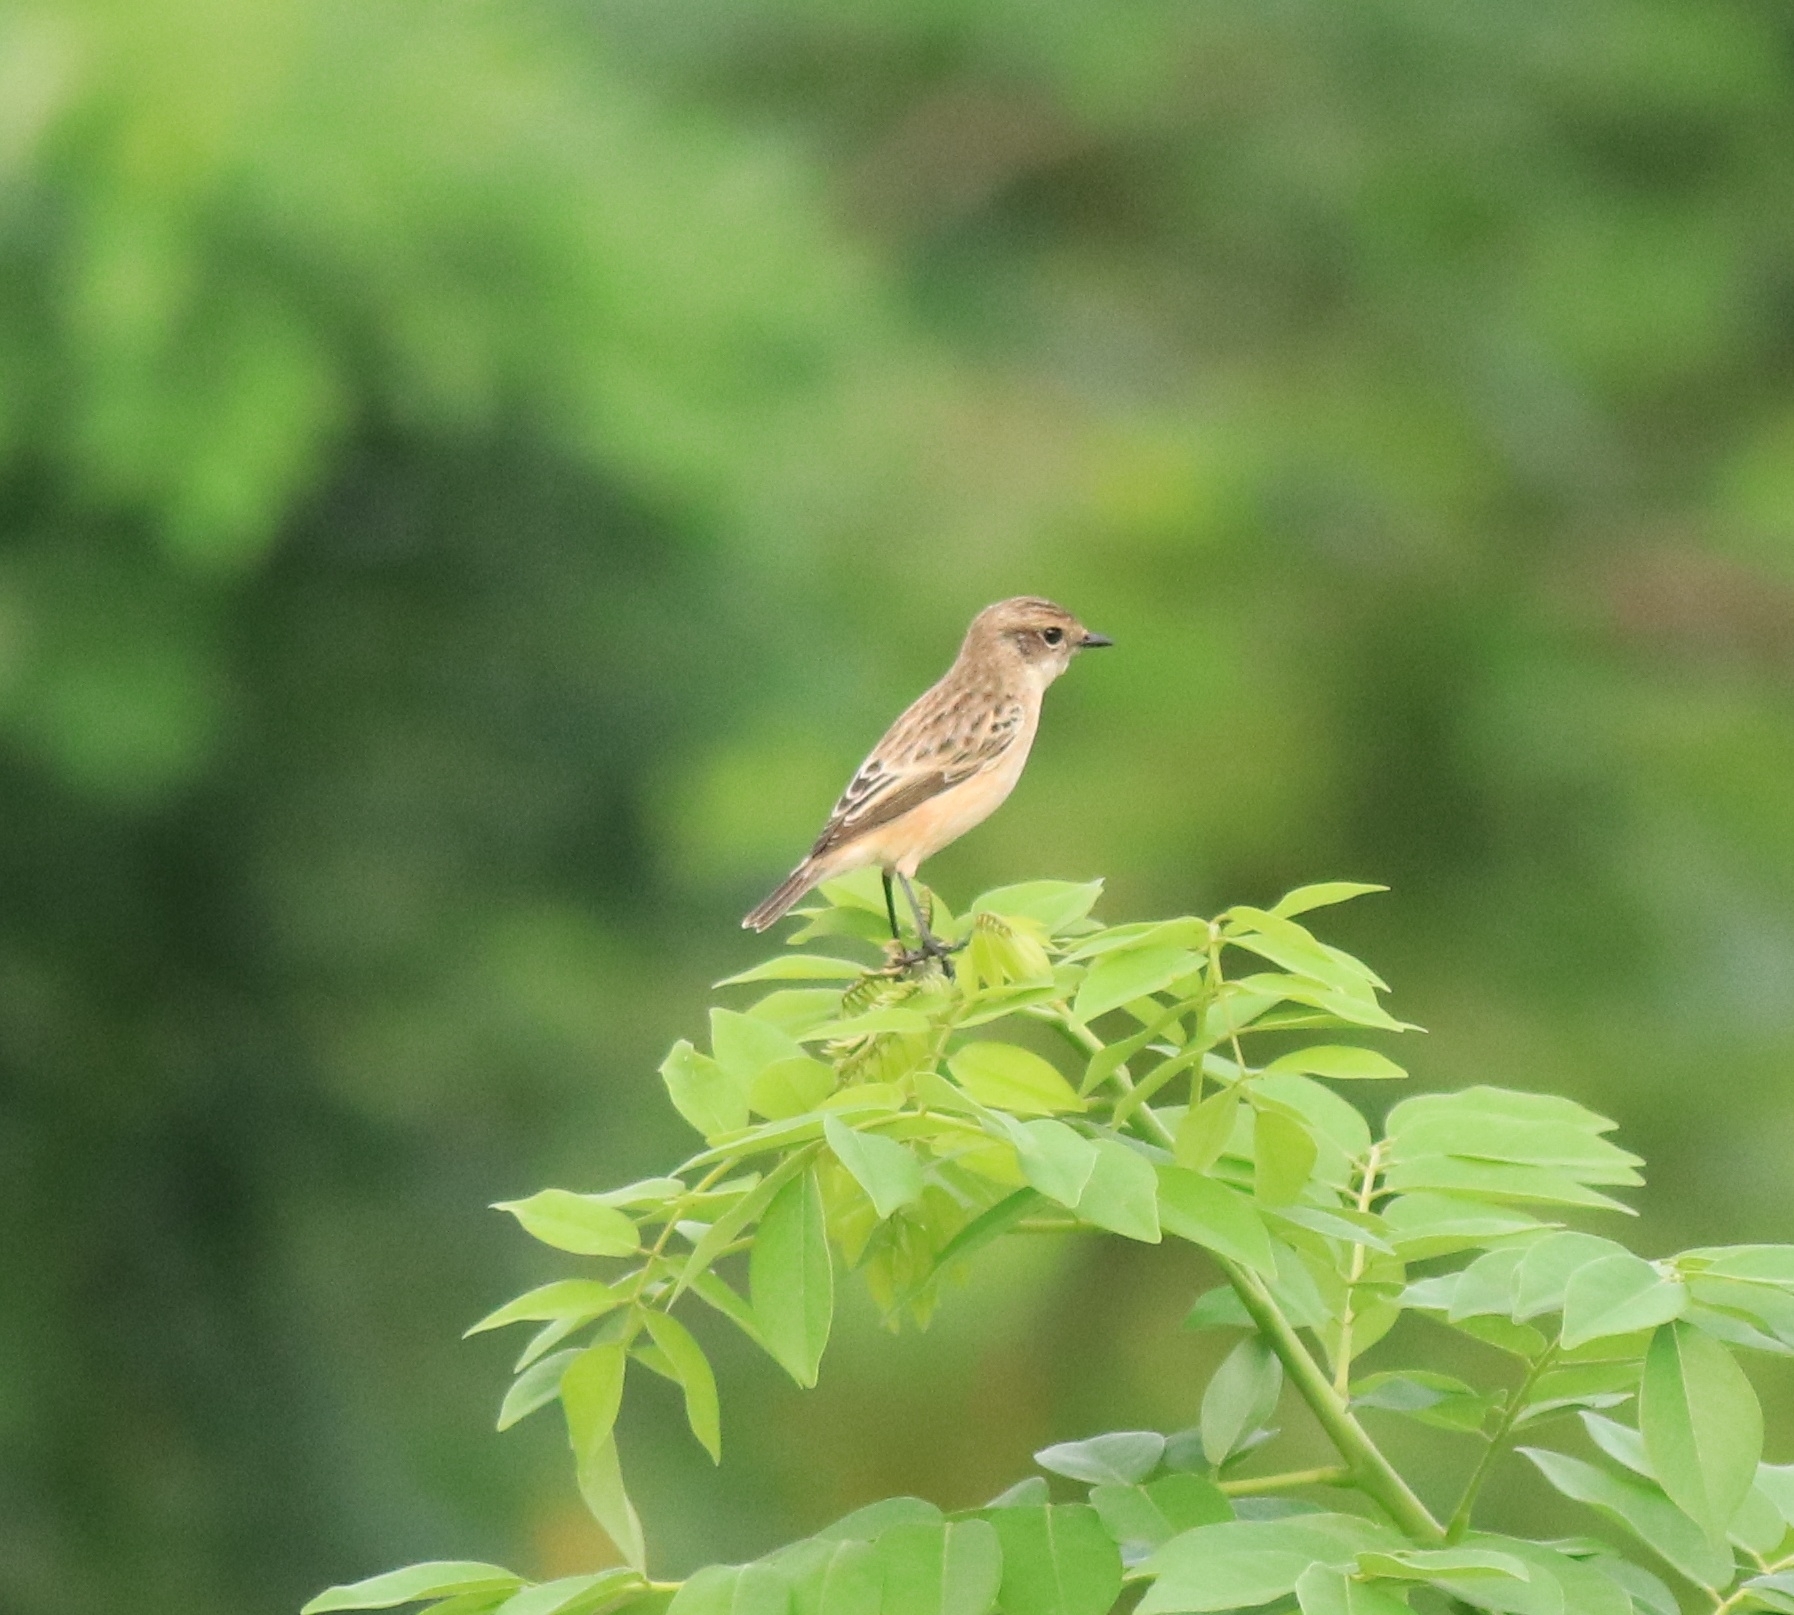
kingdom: Animalia
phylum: Chordata
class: Aves
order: Passeriformes
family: Muscicapidae
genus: Saxicola
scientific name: Saxicola maurus
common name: Siberian stonechat
